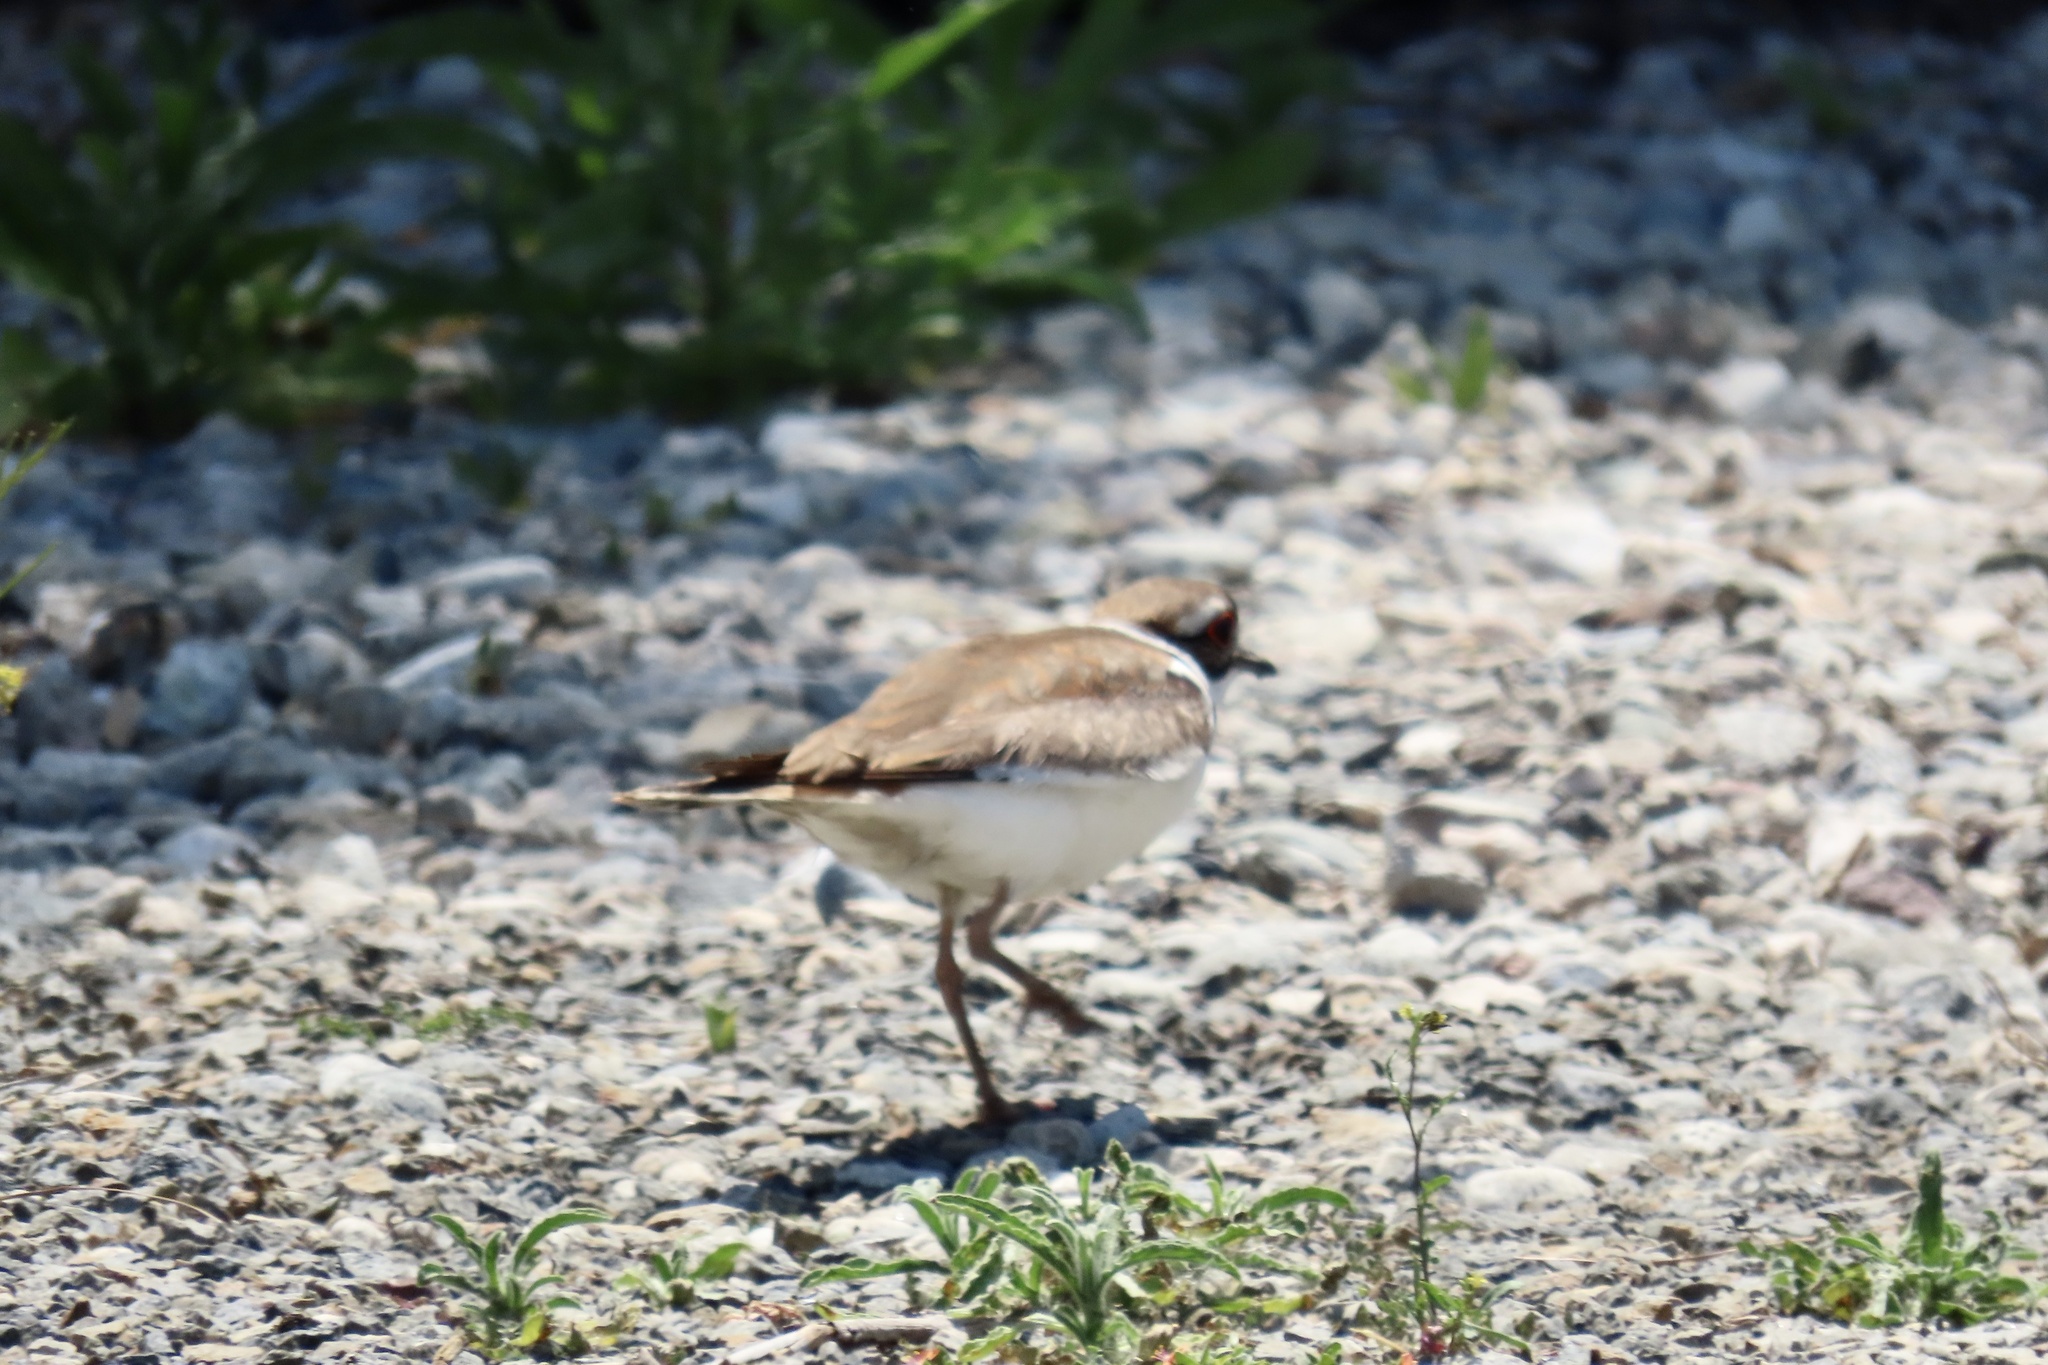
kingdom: Animalia
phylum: Chordata
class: Aves
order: Charadriiformes
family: Charadriidae
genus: Charadrius
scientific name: Charadrius vociferus
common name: Killdeer
